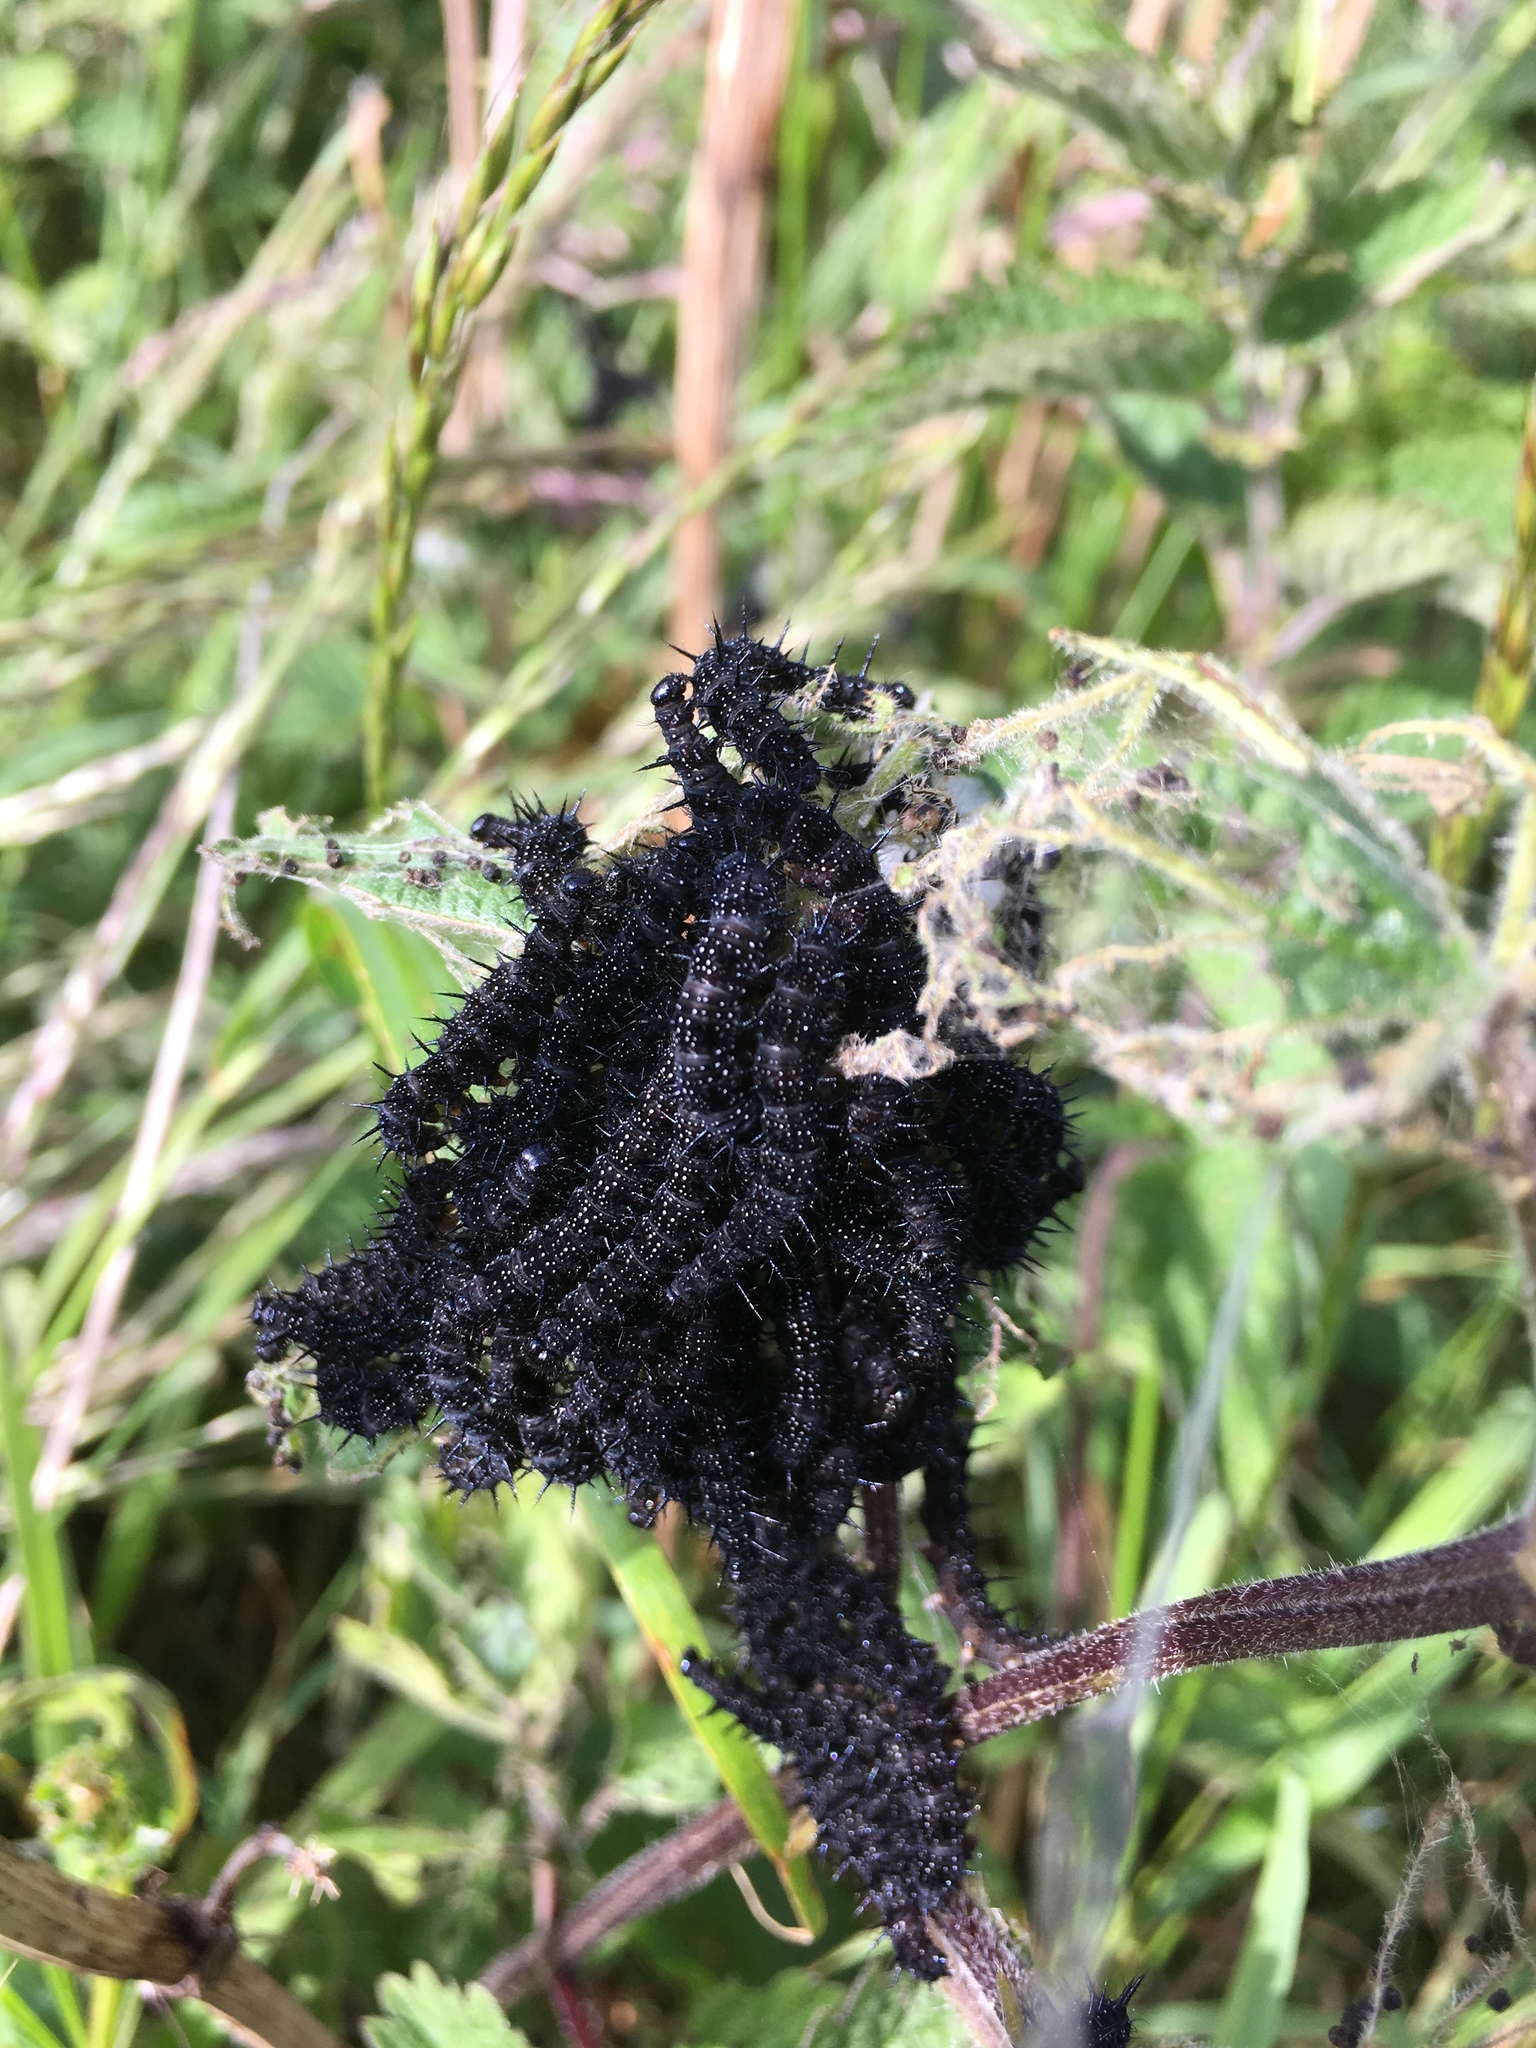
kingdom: Animalia
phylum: Arthropoda
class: Insecta
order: Lepidoptera
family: Nymphalidae
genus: Aglais
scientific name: Aglais io
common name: Peacock
